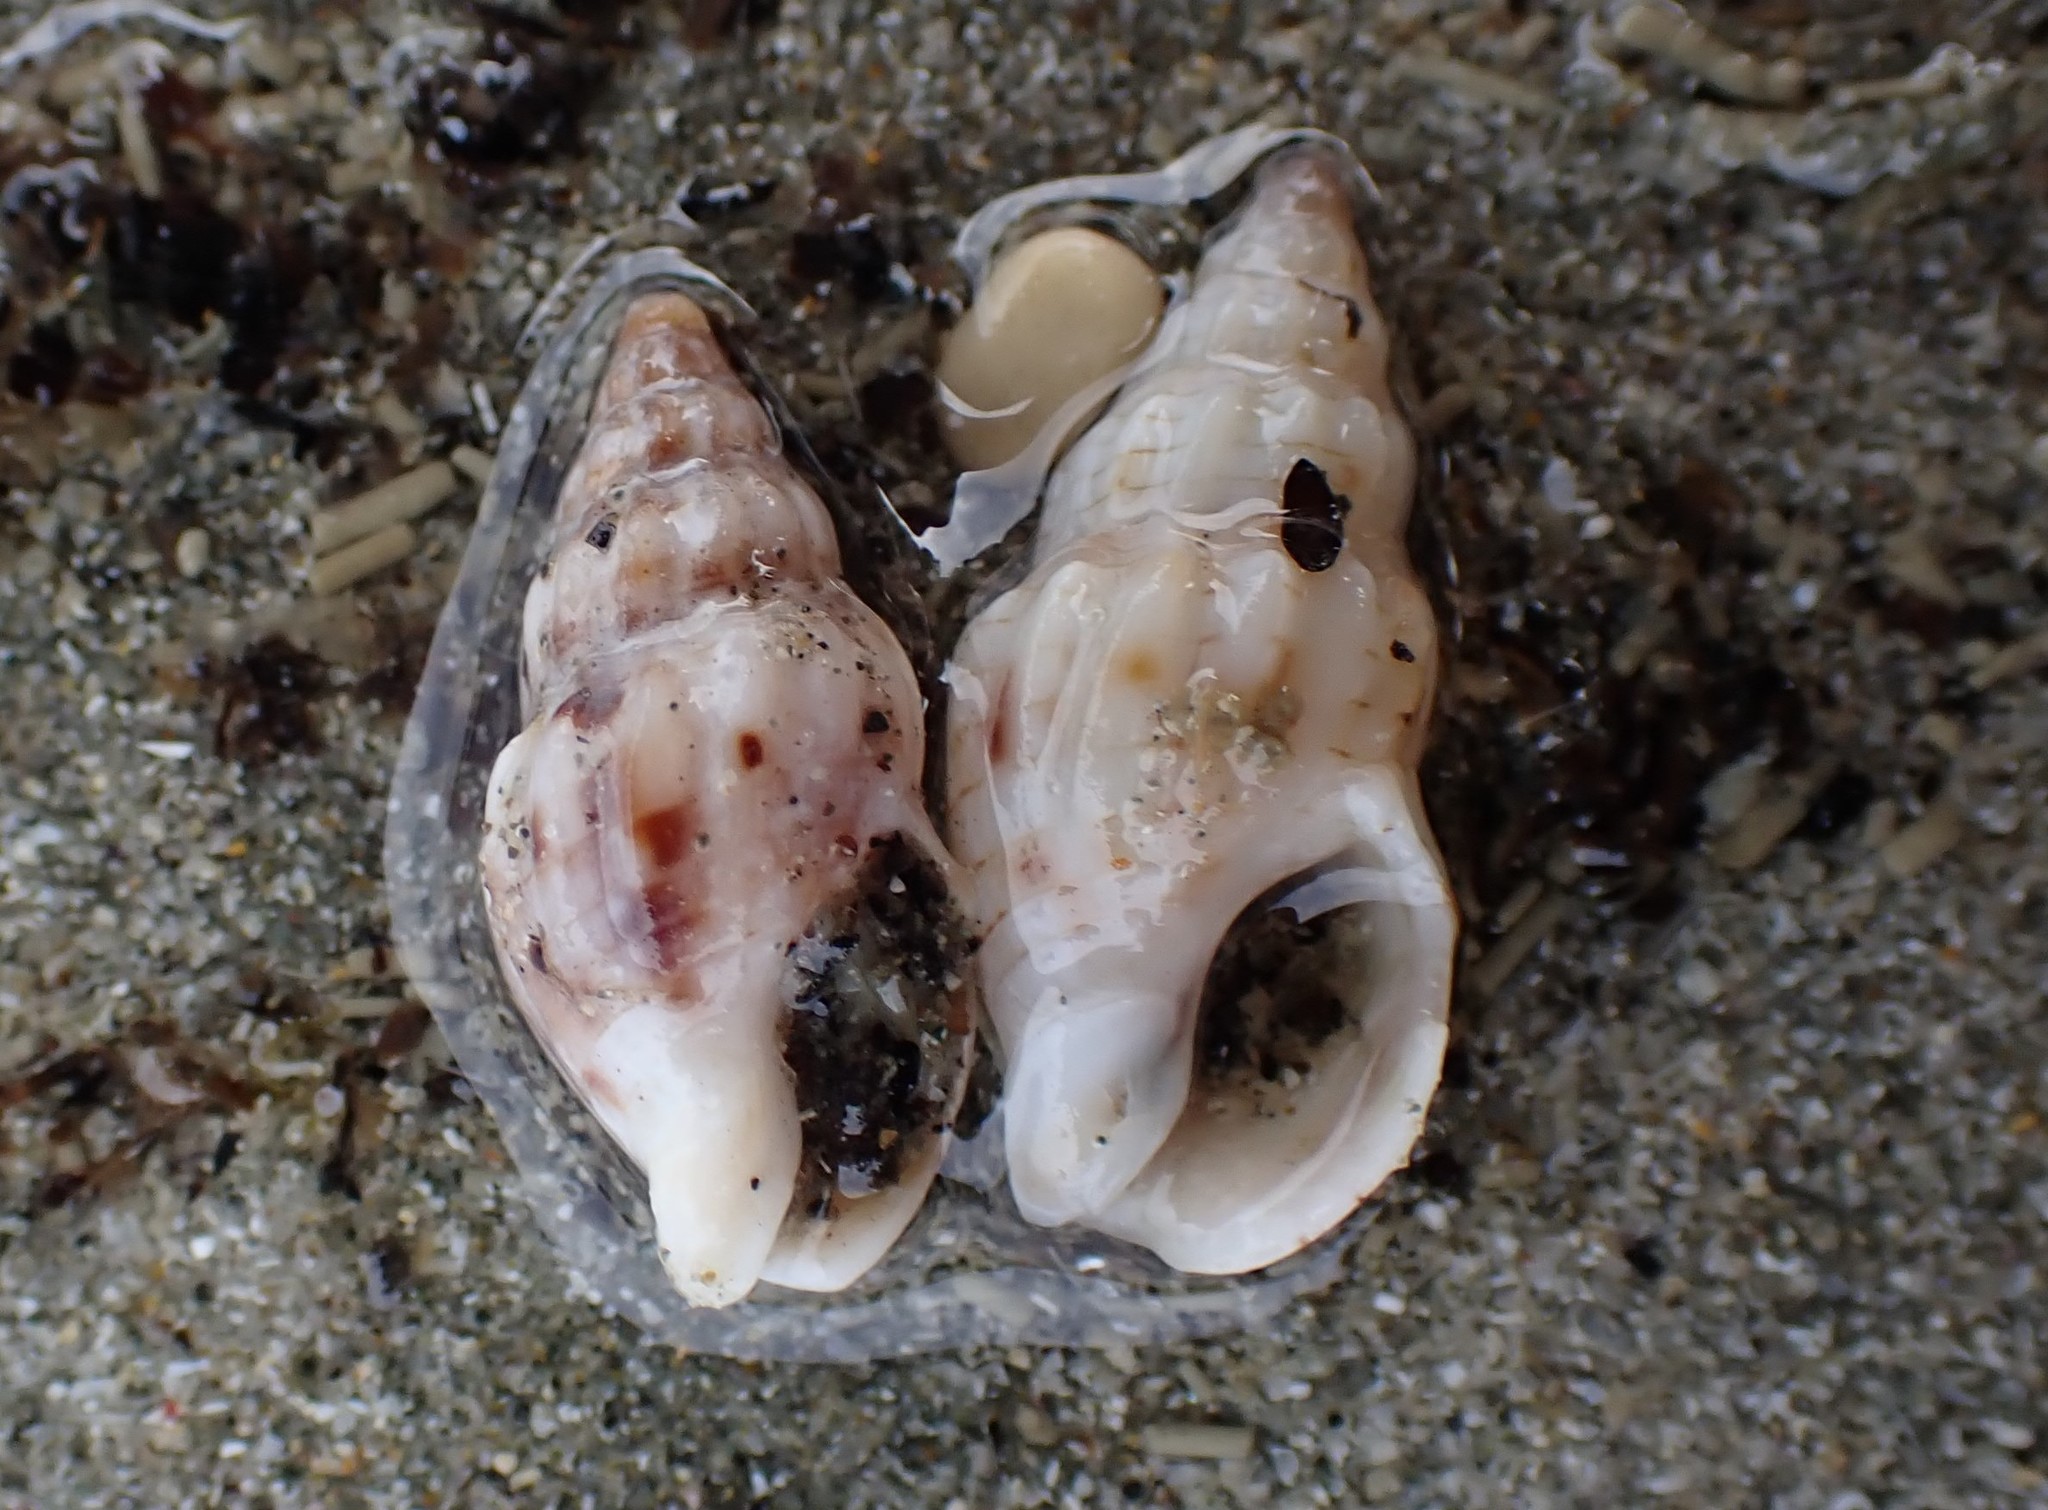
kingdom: Animalia
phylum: Mollusca
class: Gastropoda
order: Neogastropoda
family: Cominellidae
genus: Cominella
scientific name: Cominella quoyana
